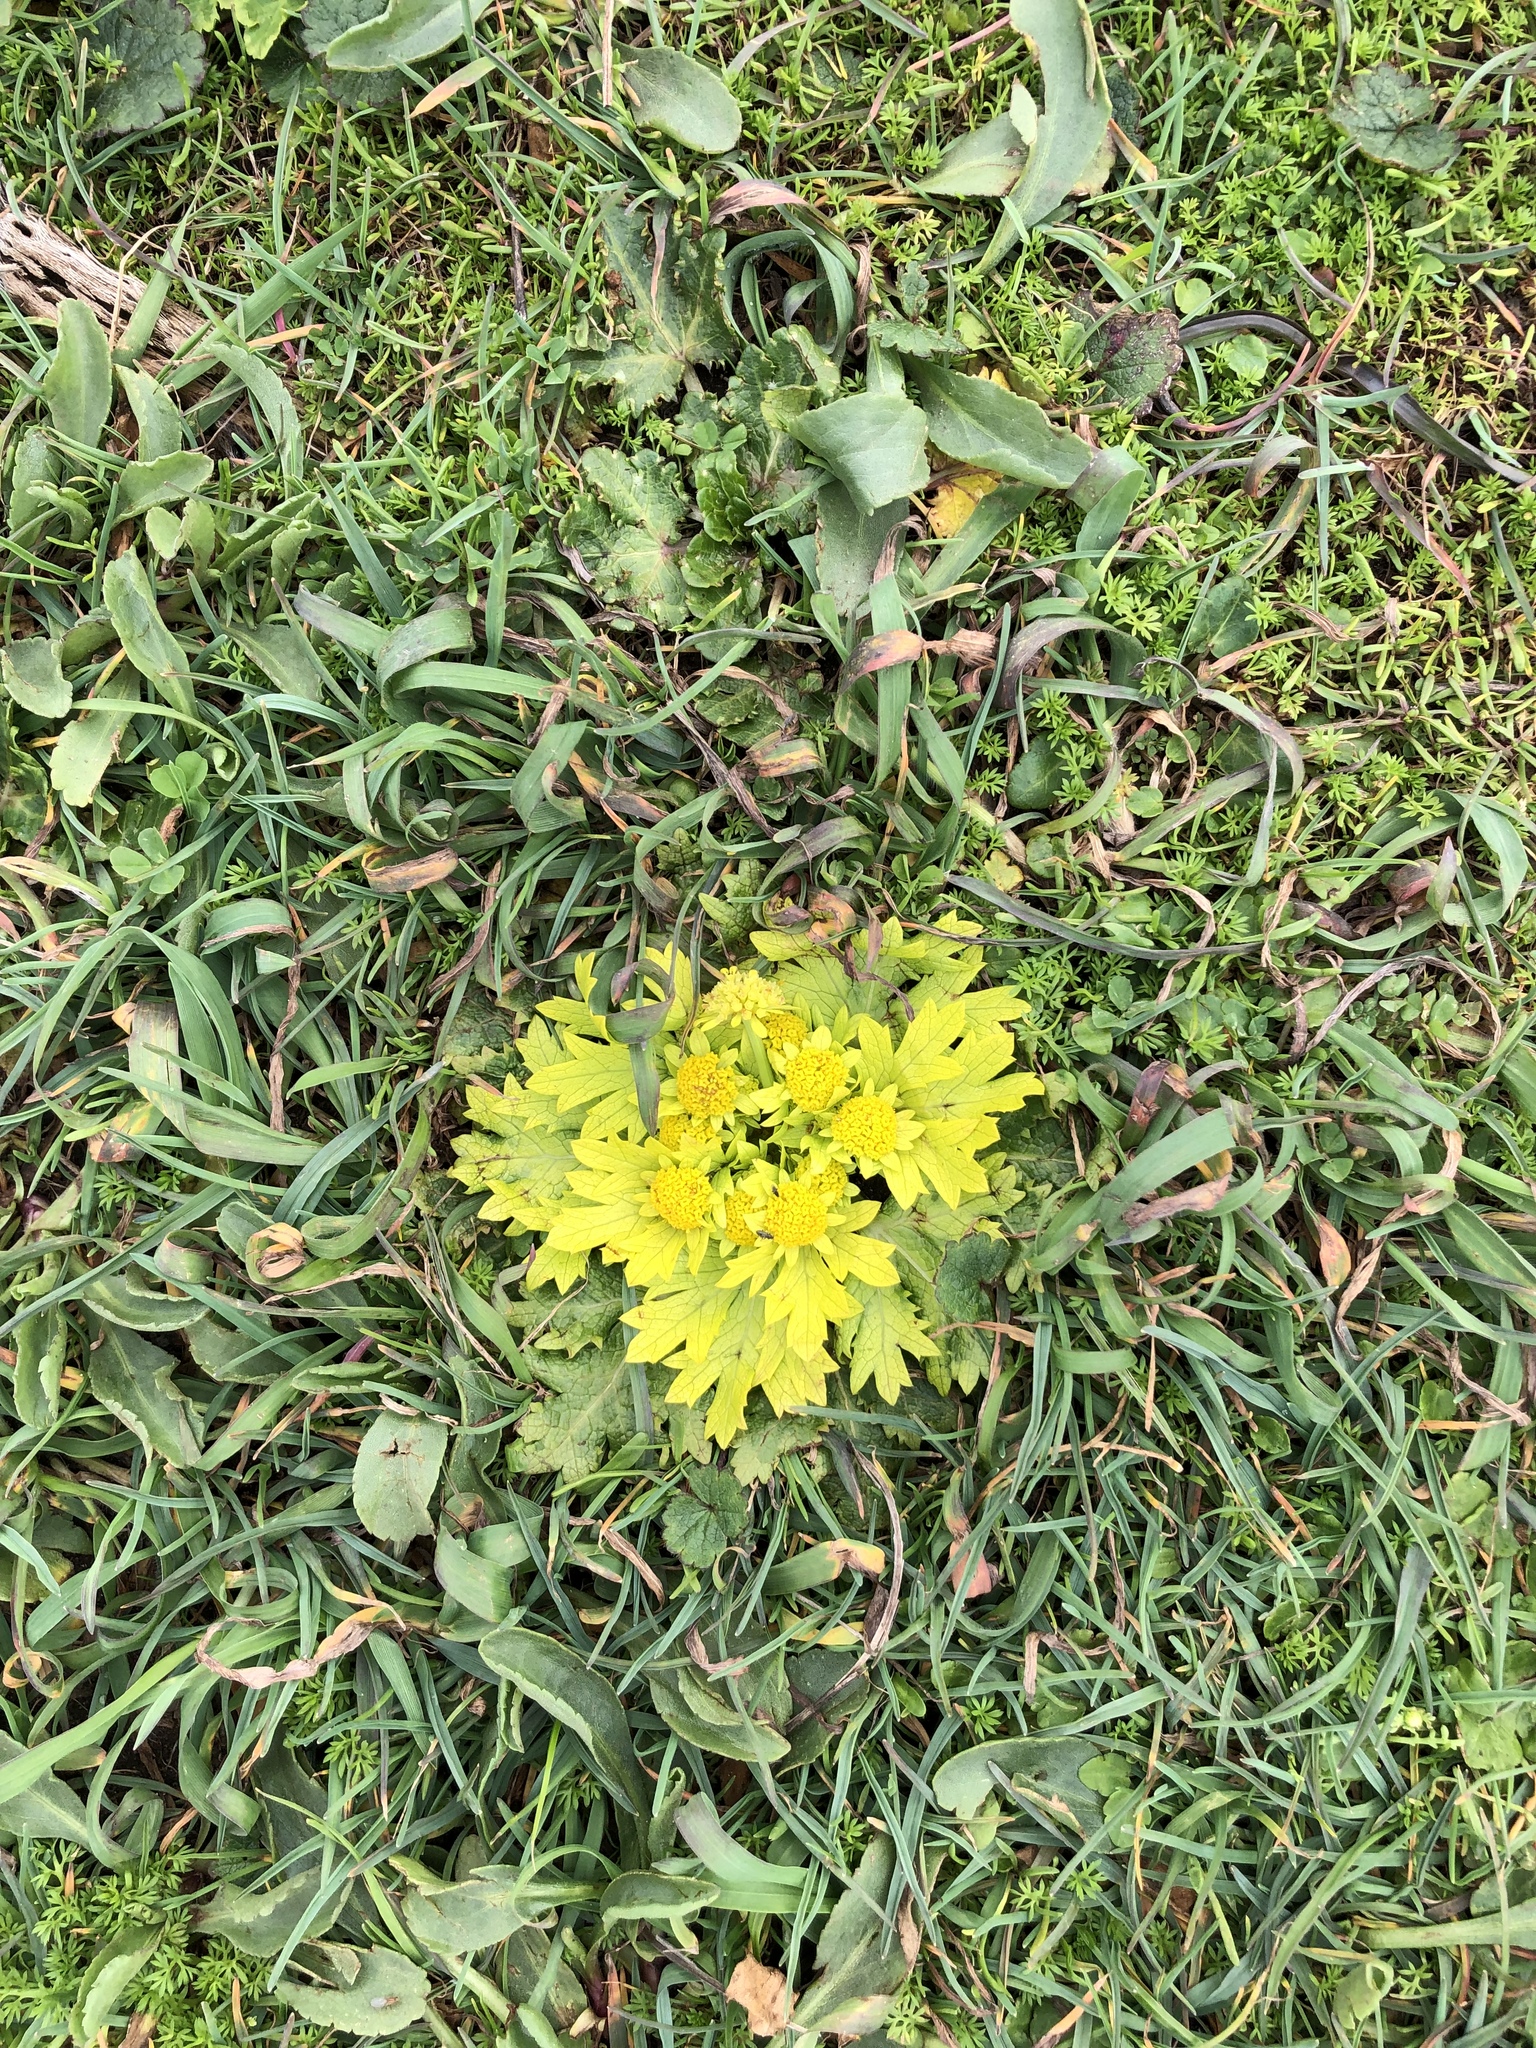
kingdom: Plantae
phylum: Tracheophyta
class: Magnoliopsida
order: Apiales
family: Apiaceae
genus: Sanicula
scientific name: Sanicula arctopoides
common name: Footsteps-of-spring
